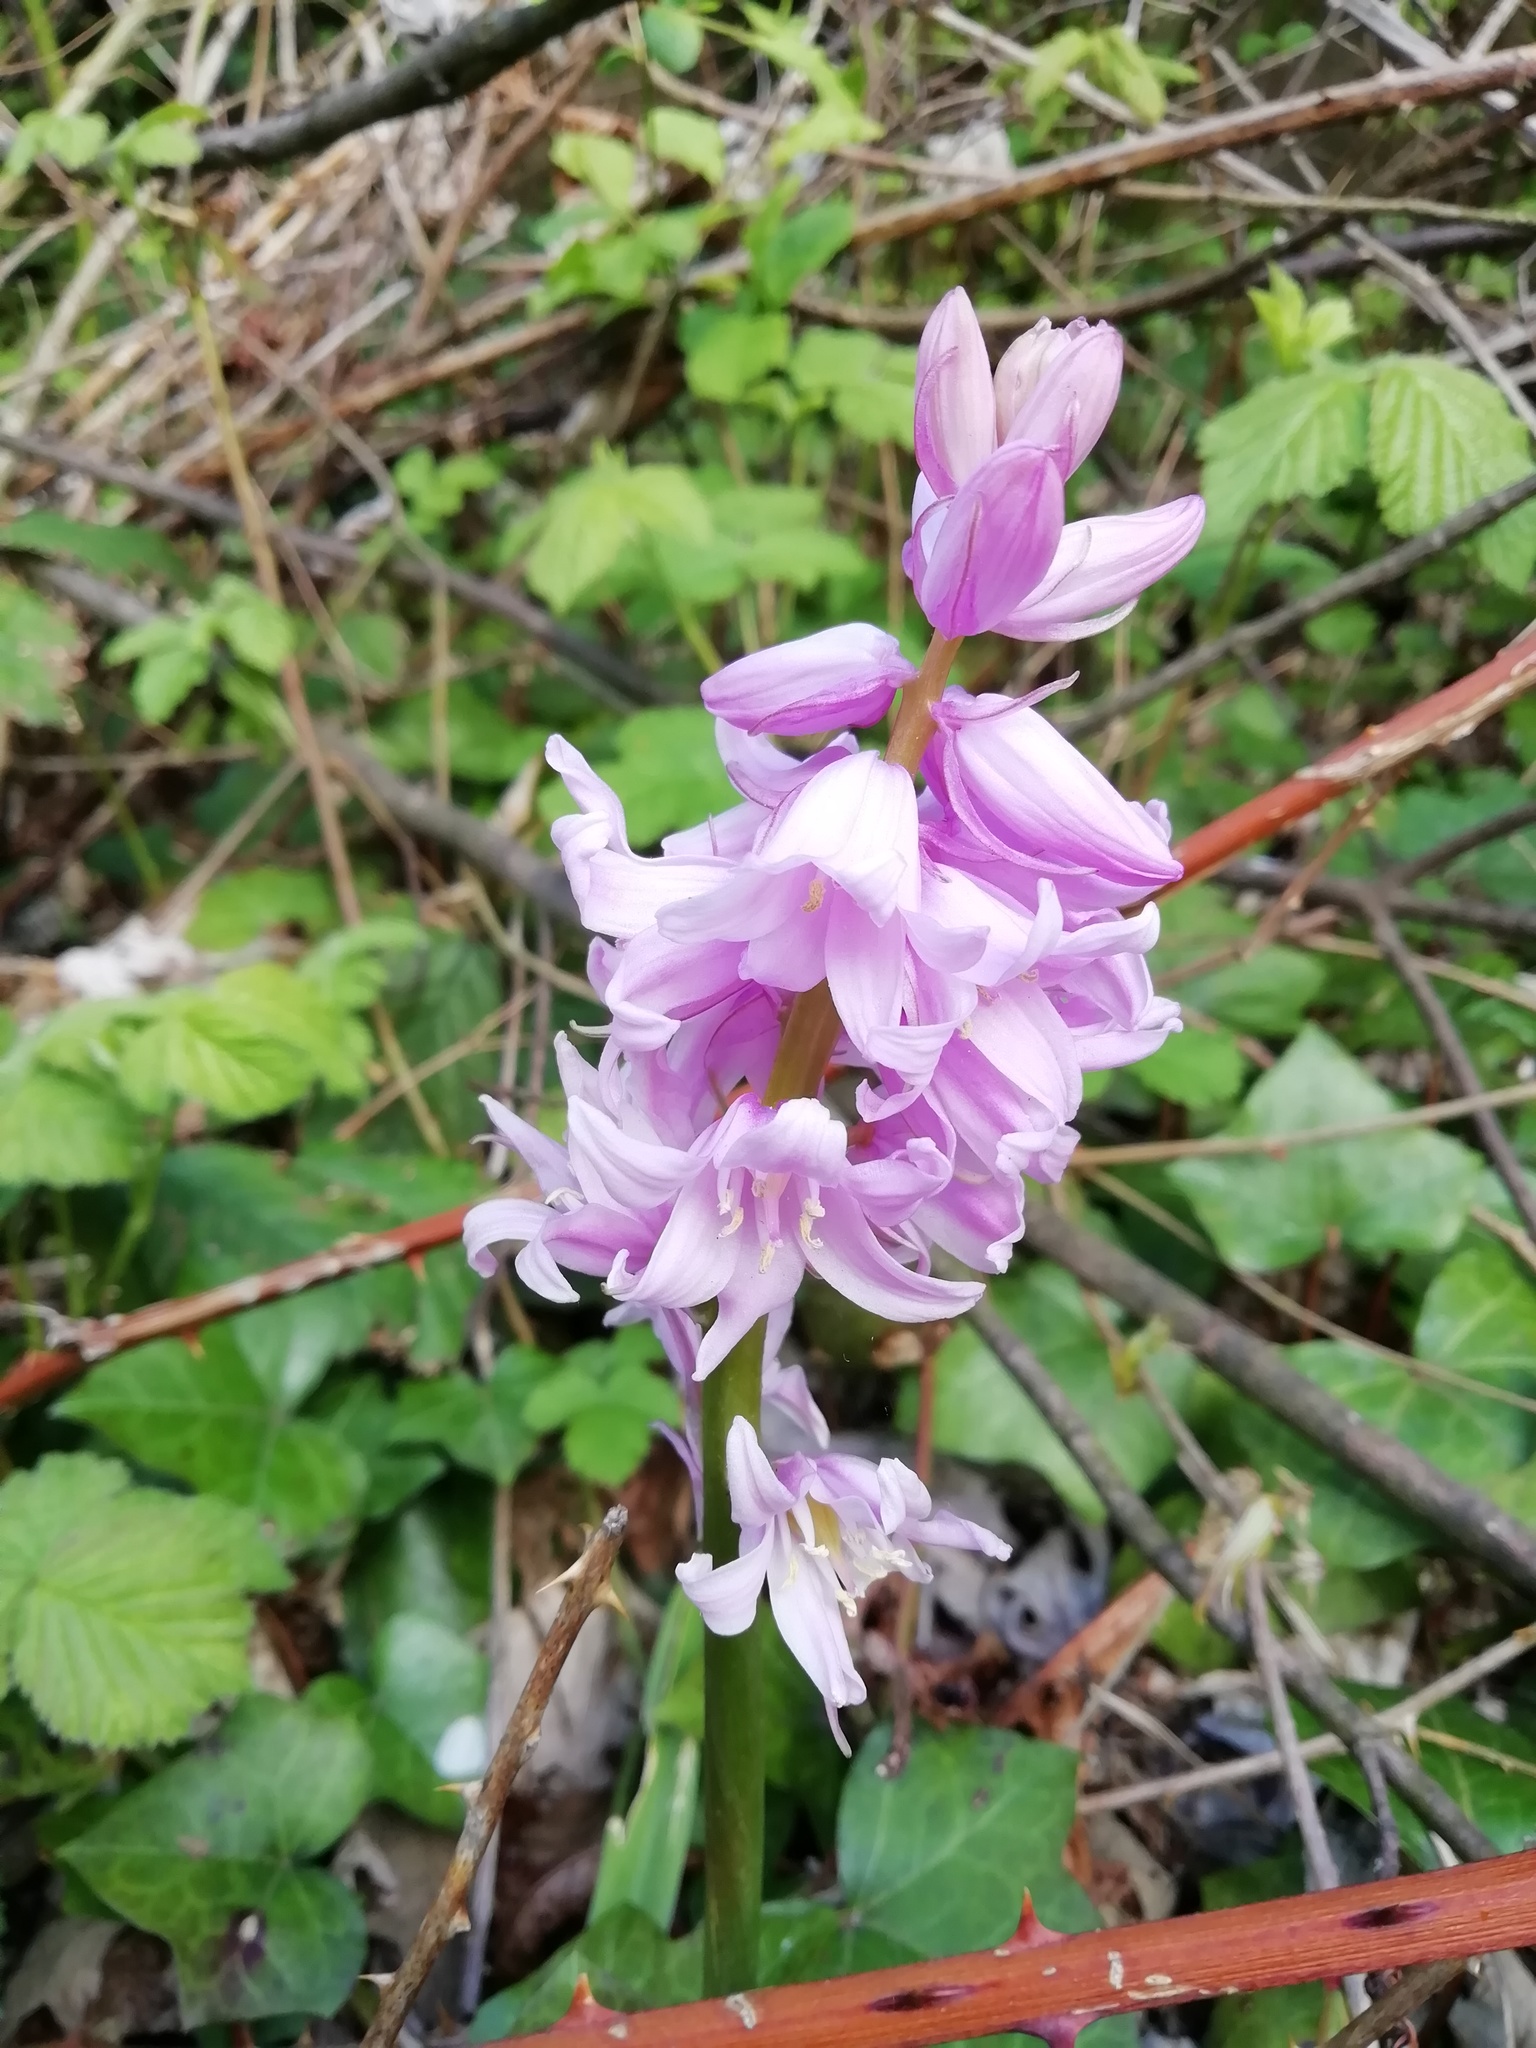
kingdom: Plantae
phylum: Tracheophyta
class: Liliopsida
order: Asparagales
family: Asparagaceae
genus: Hyacinthoides
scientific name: Hyacinthoides hispanica
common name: Spanish bluebell
